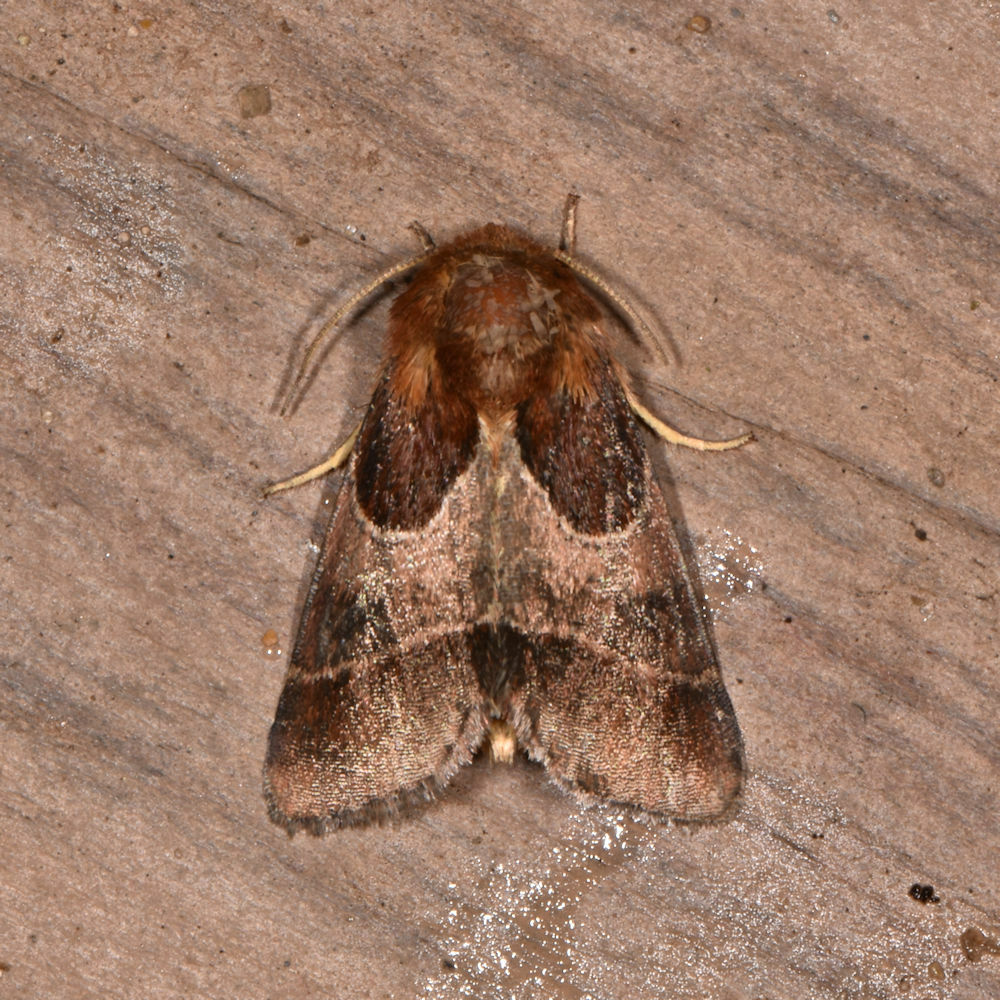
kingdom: Animalia
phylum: Arthropoda
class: Insecta
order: Lepidoptera
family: Noctuidae
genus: Schinia
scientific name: Schinia arcigera
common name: Arcigera flower moth
